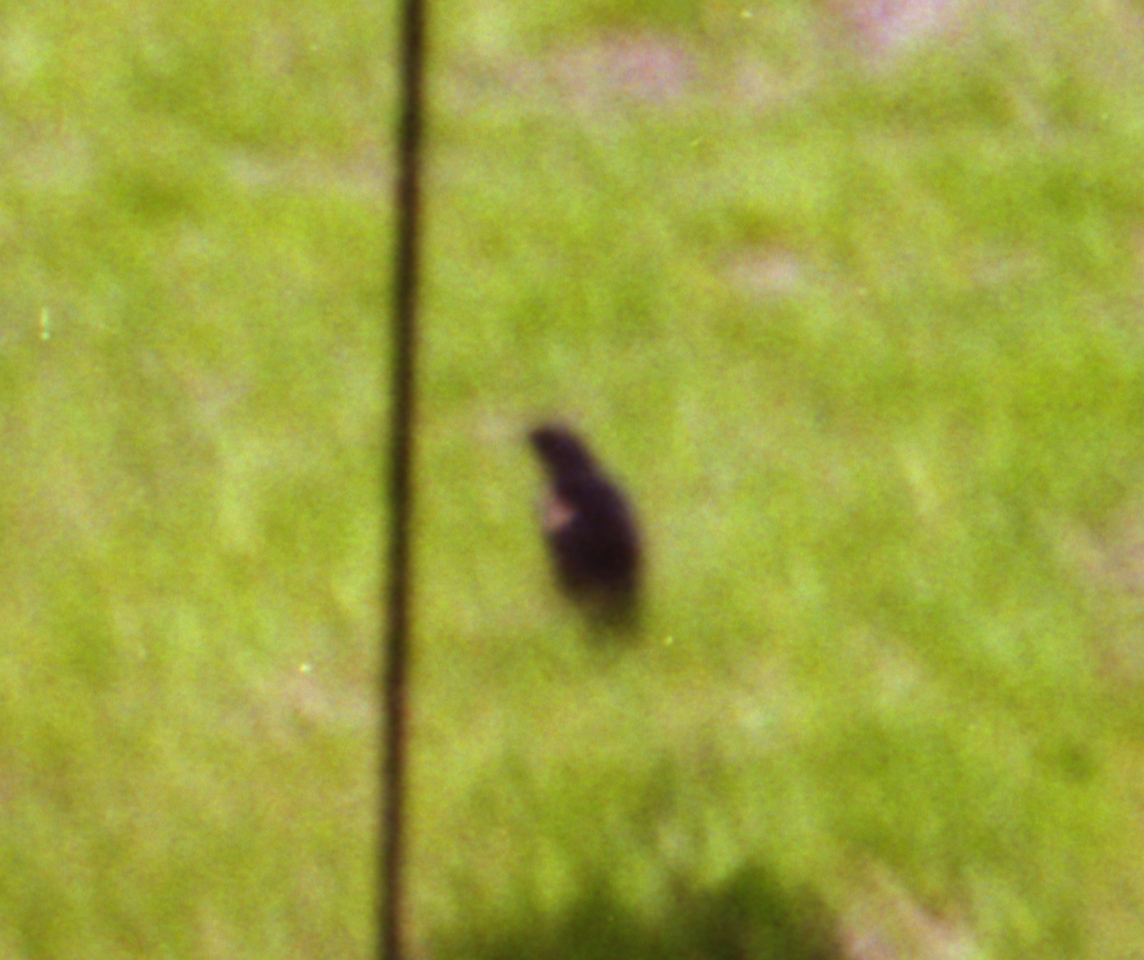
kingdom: Animalia
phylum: Chordata
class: Aves
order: Passeriformes
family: Icteridae
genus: Agelaius
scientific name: Agelaius phoeniceus
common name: Red-winged blackbird
